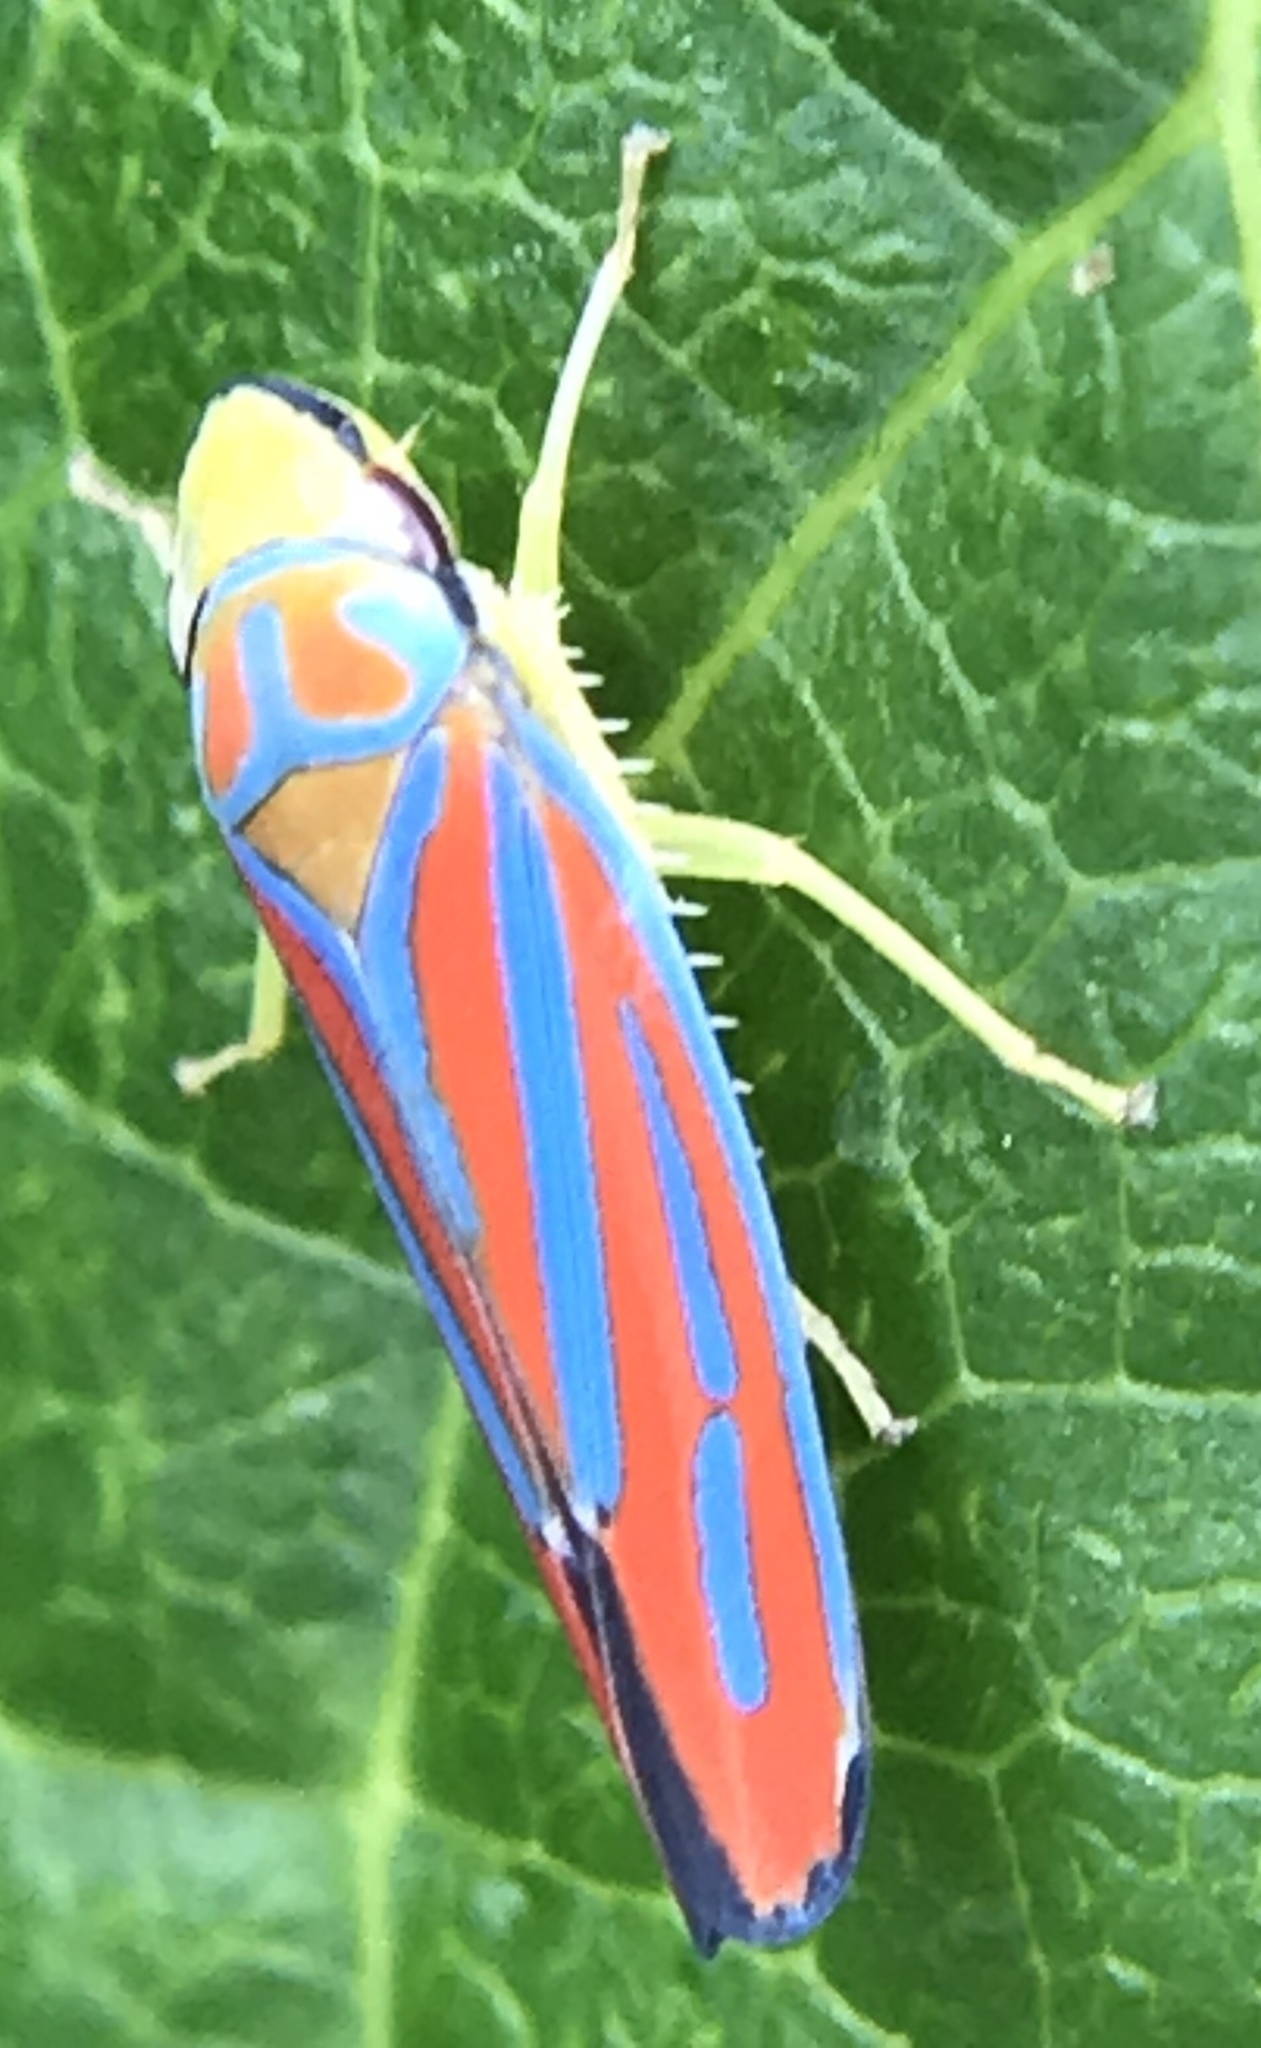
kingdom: Animalia
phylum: Arthropoda
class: Insecta
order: Hemiptera
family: Cicadellidae
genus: Graphocephala
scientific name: Graphocephala coccinea
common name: Candy-striped leafhopper
